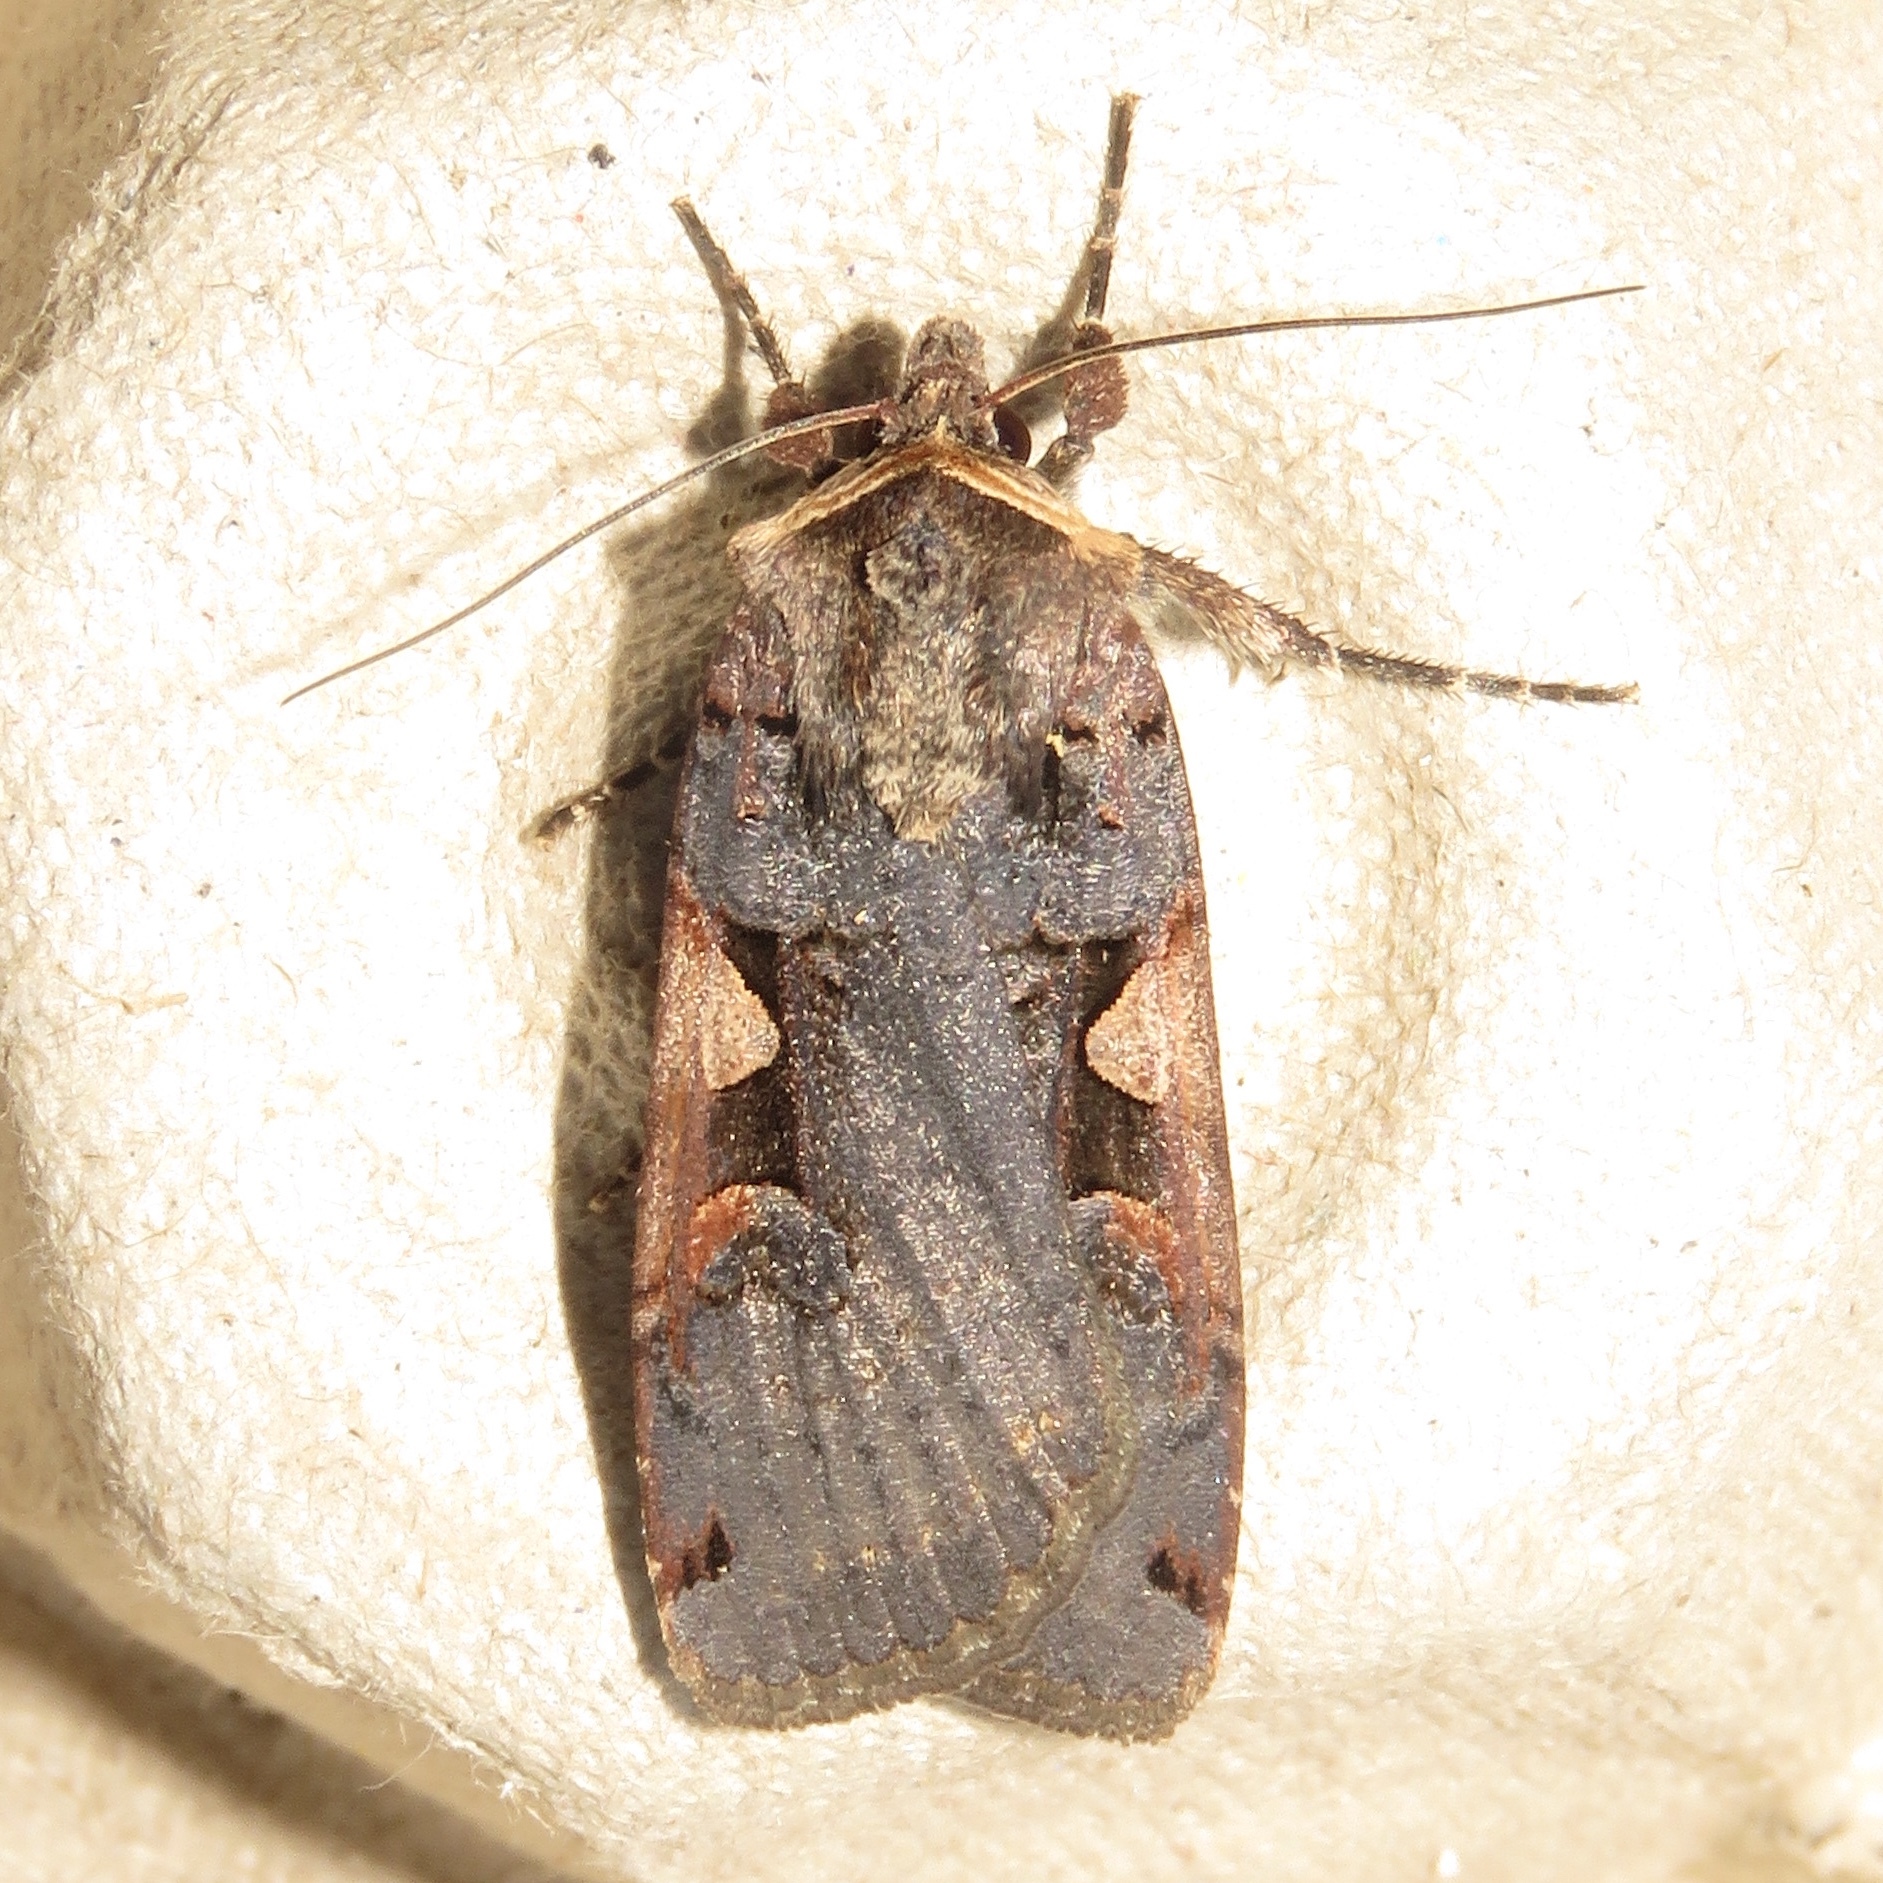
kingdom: Animalia
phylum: Arthropoda
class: Insecta
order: Lepidoptera
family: Noctuidae
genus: Xestia
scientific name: Xestia
